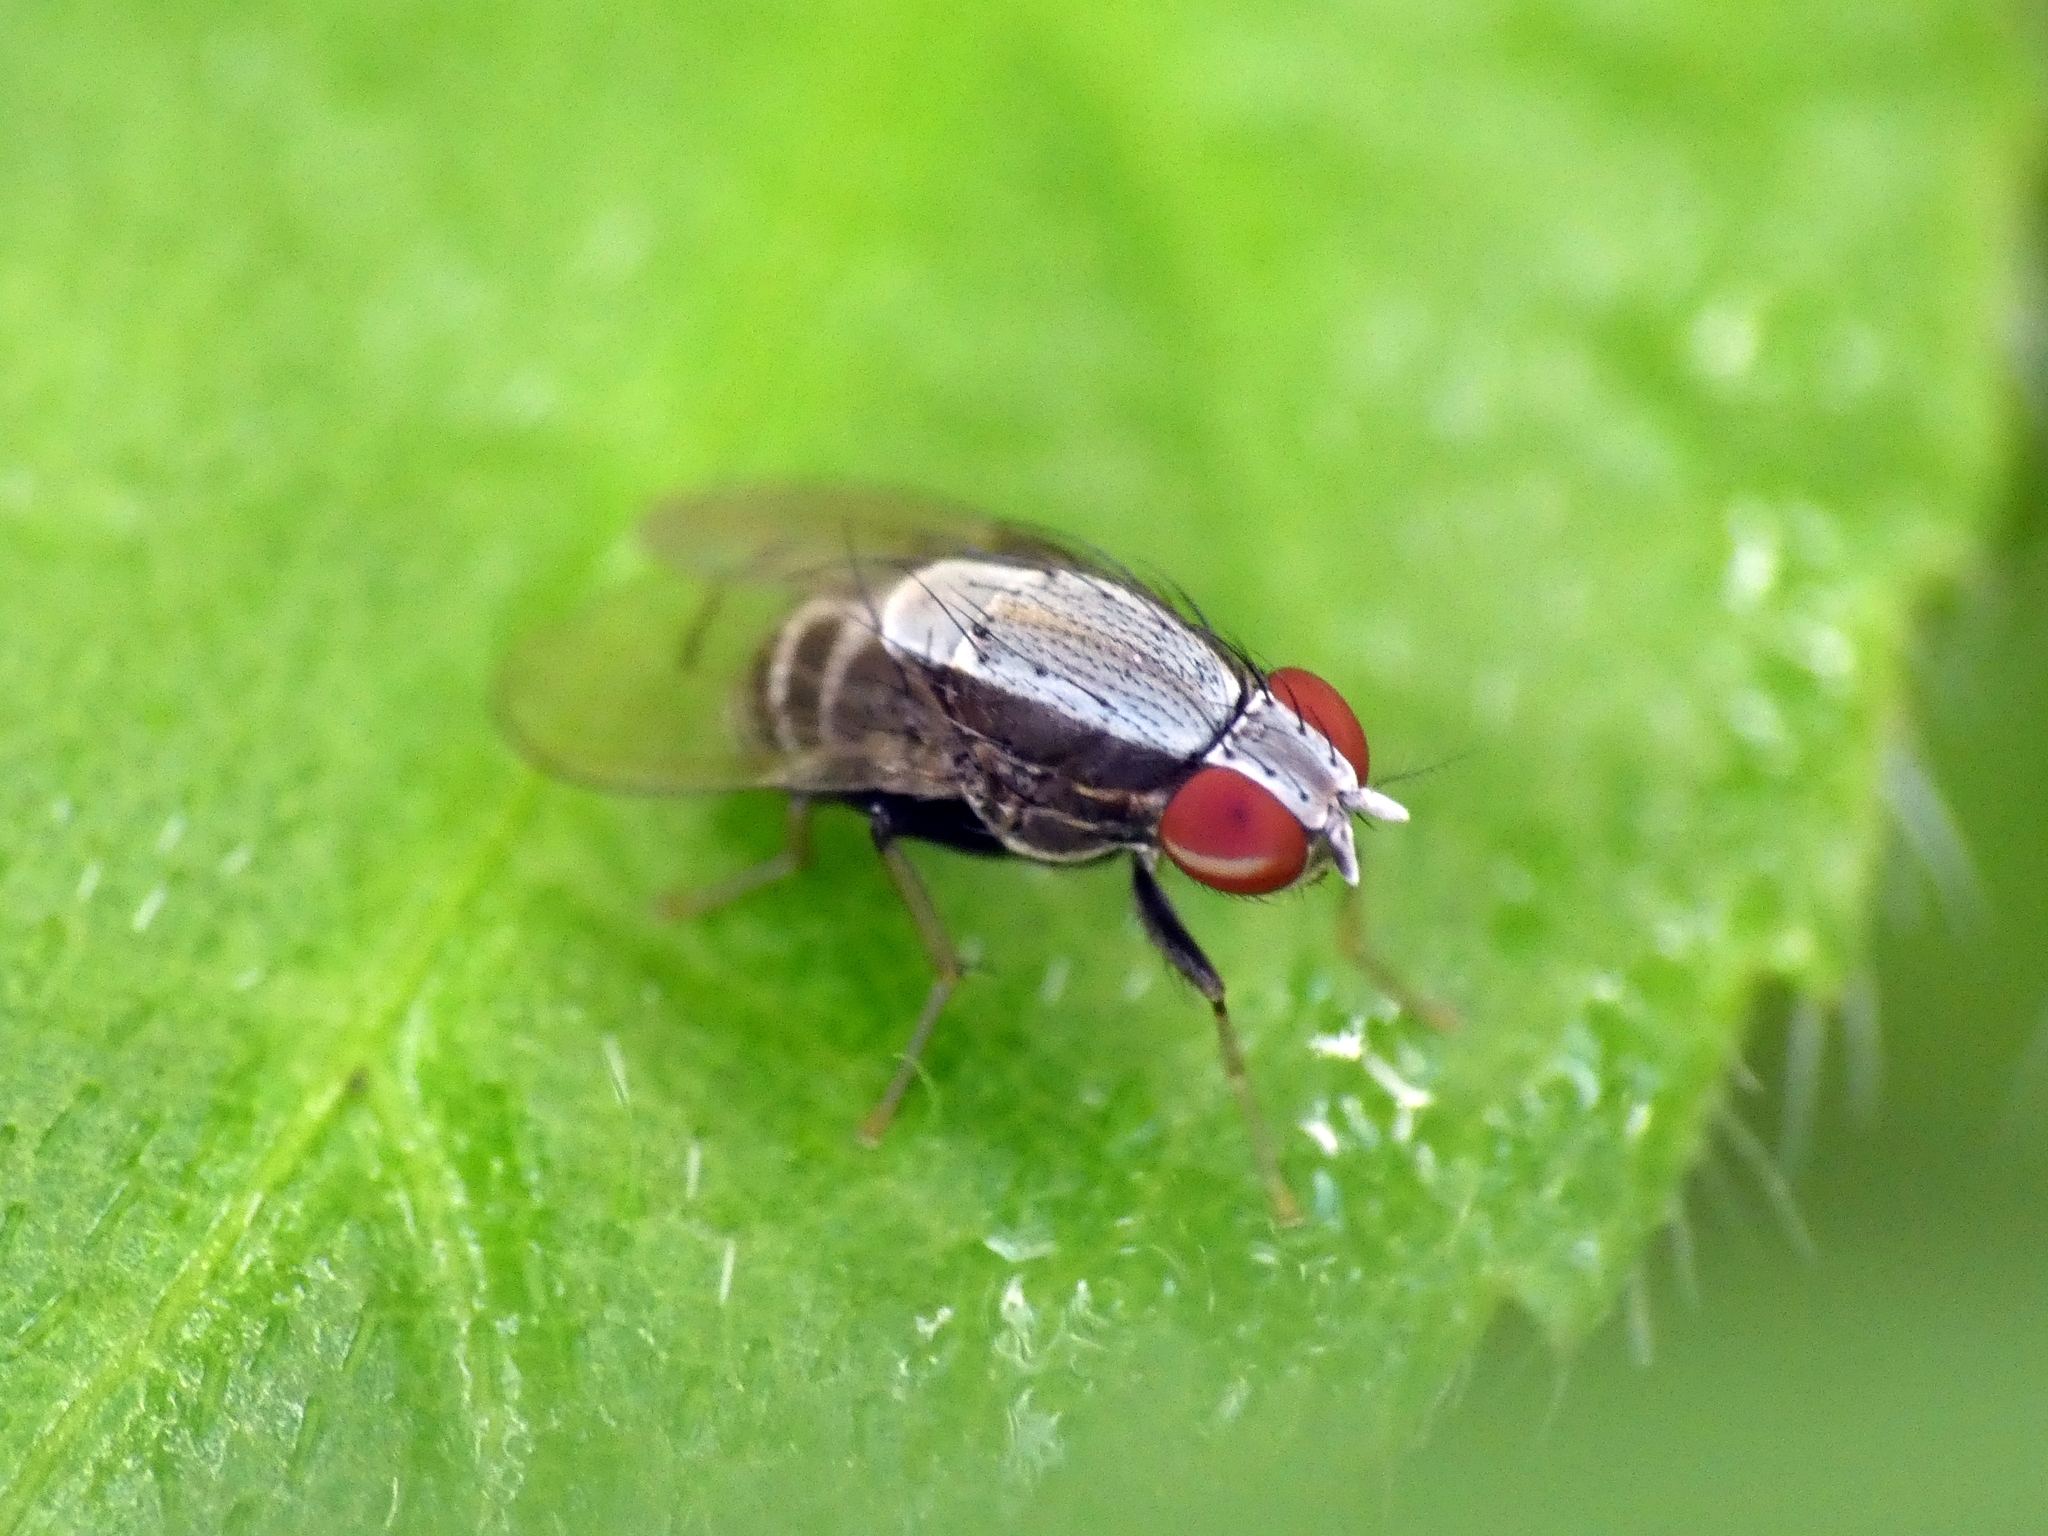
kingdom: Animalia
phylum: Arthropoda
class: Insecta
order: Diptera
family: Lauxaniidae
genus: Homoneura
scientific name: Homoneura discoglauca
